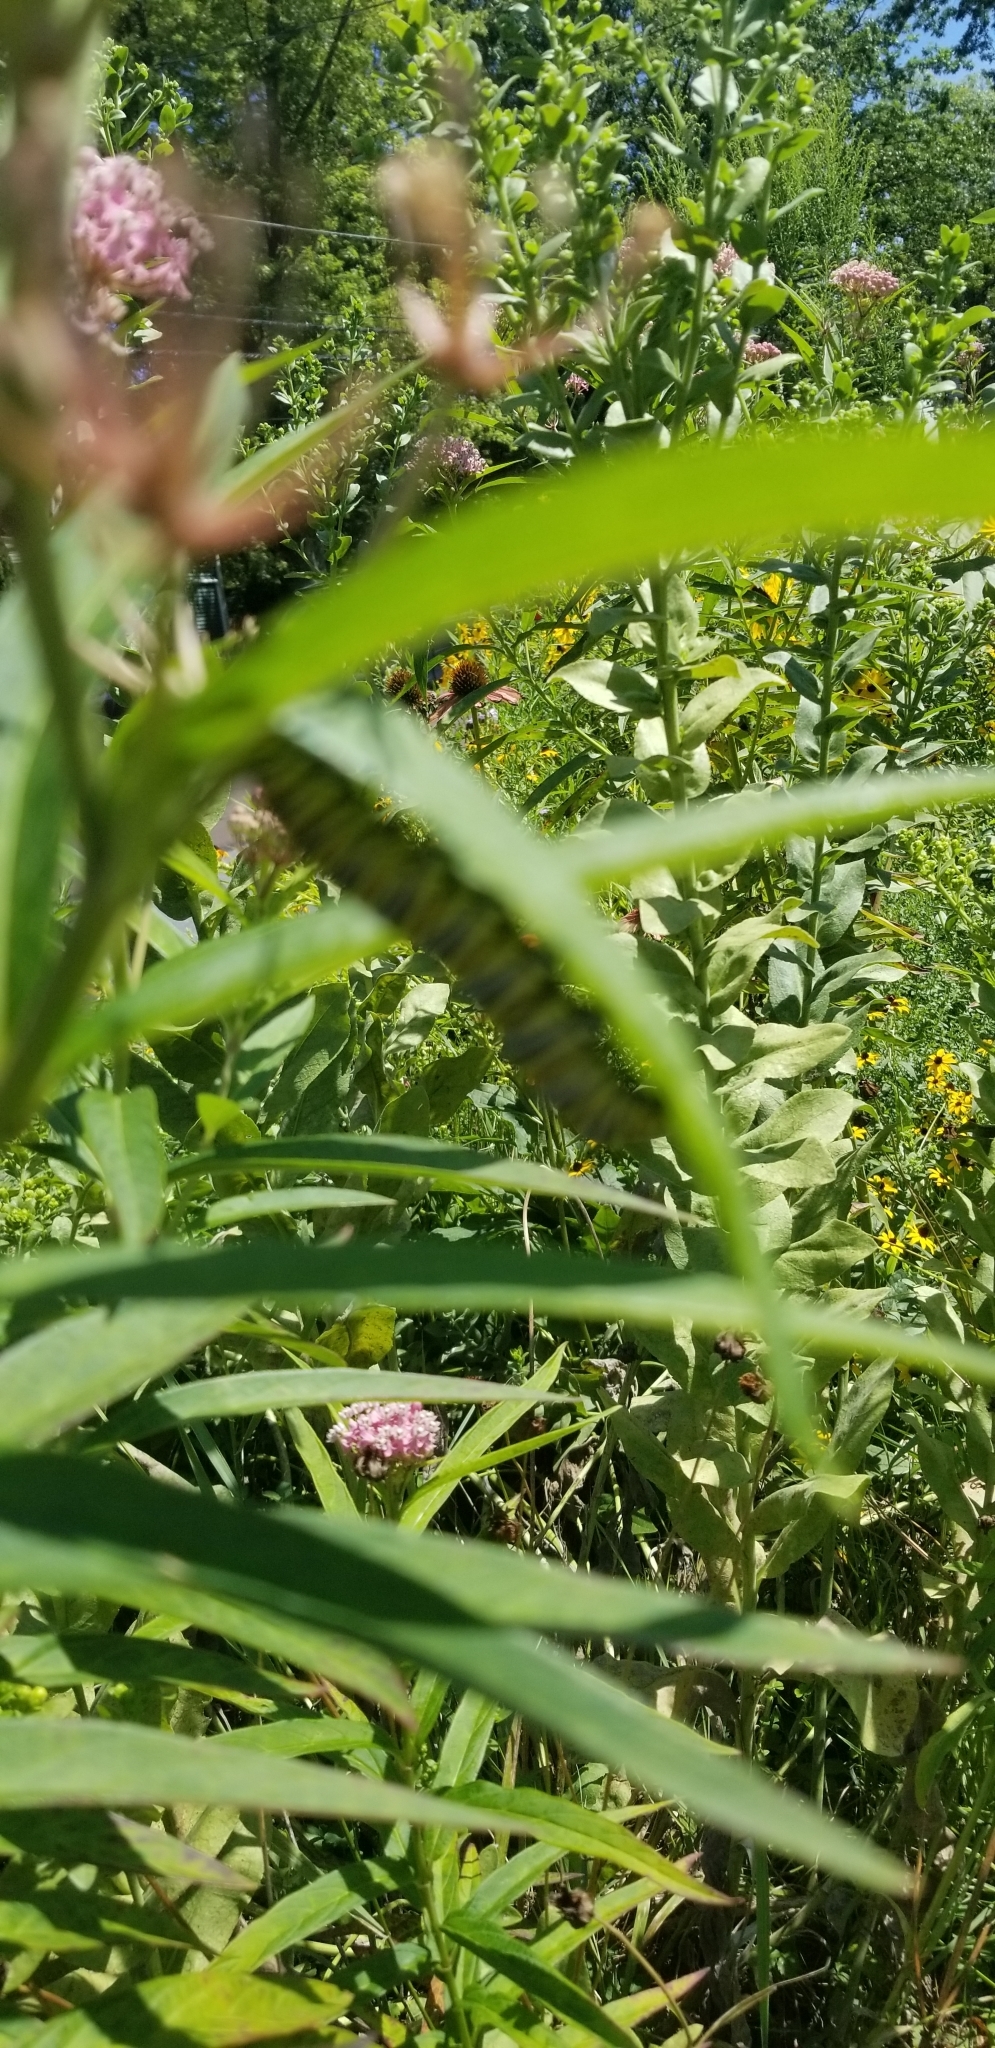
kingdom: Animalia
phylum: Arthropoda
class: Insecta
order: Lepidoptera
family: Nymphalidae
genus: Danaus
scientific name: Danaus plexippus
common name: Monarch
